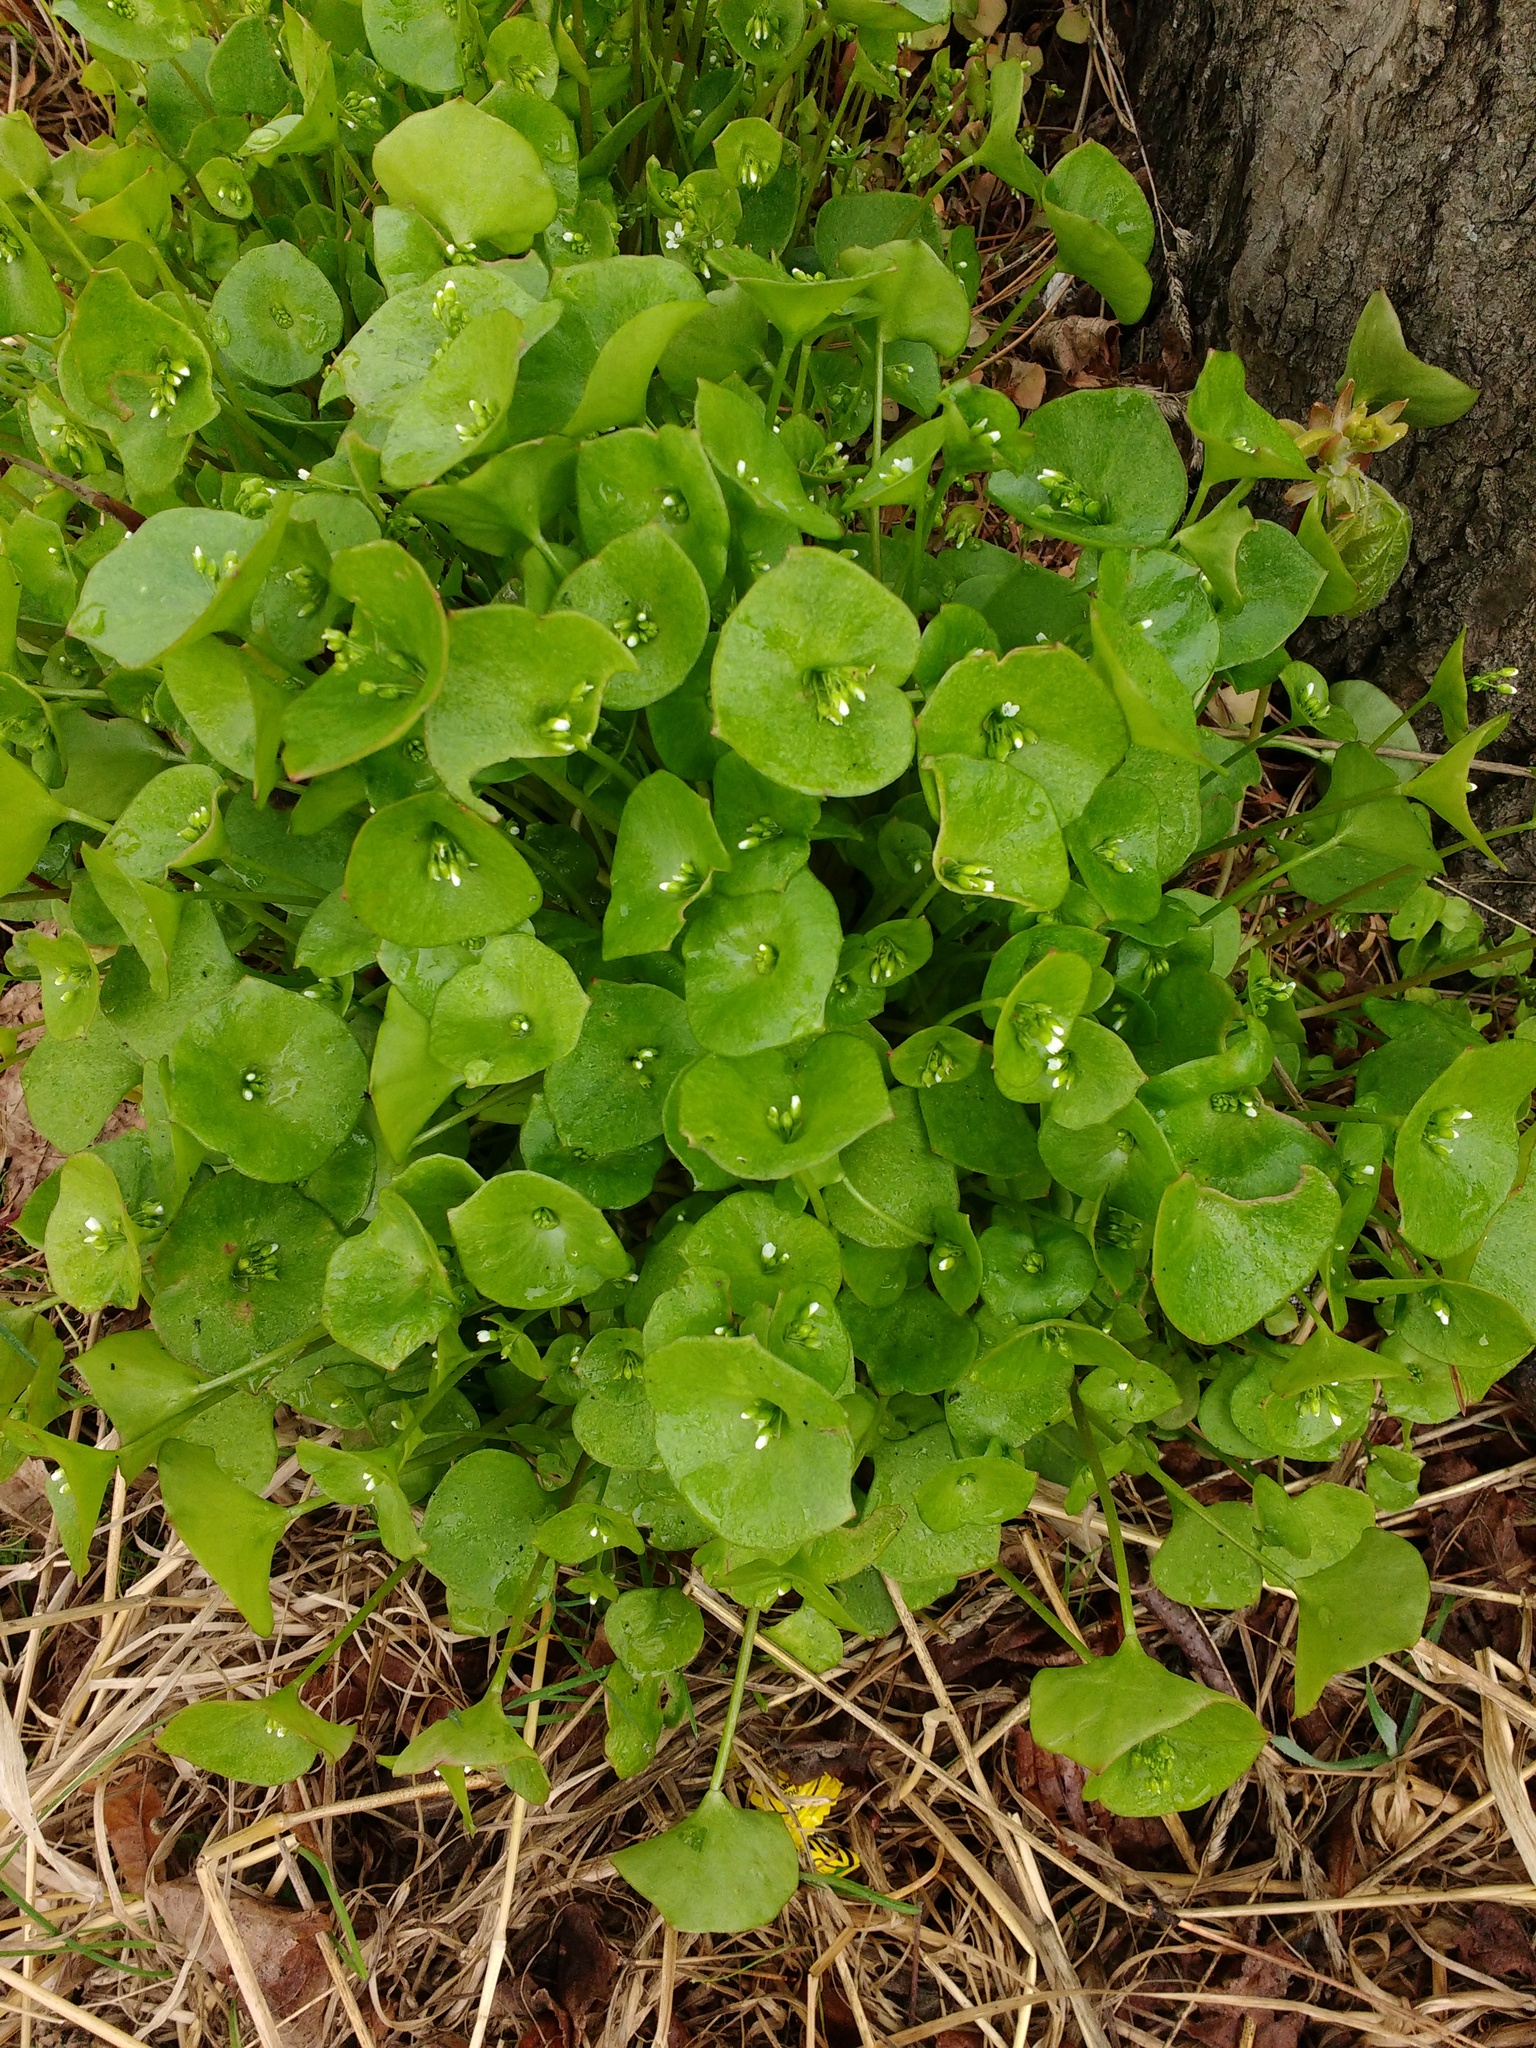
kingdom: Plantae
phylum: Tracheophyta
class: Magnoliopsida
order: Caryophyllales
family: Montiaceae
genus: Claytonia
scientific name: Claytonia perfoliata
